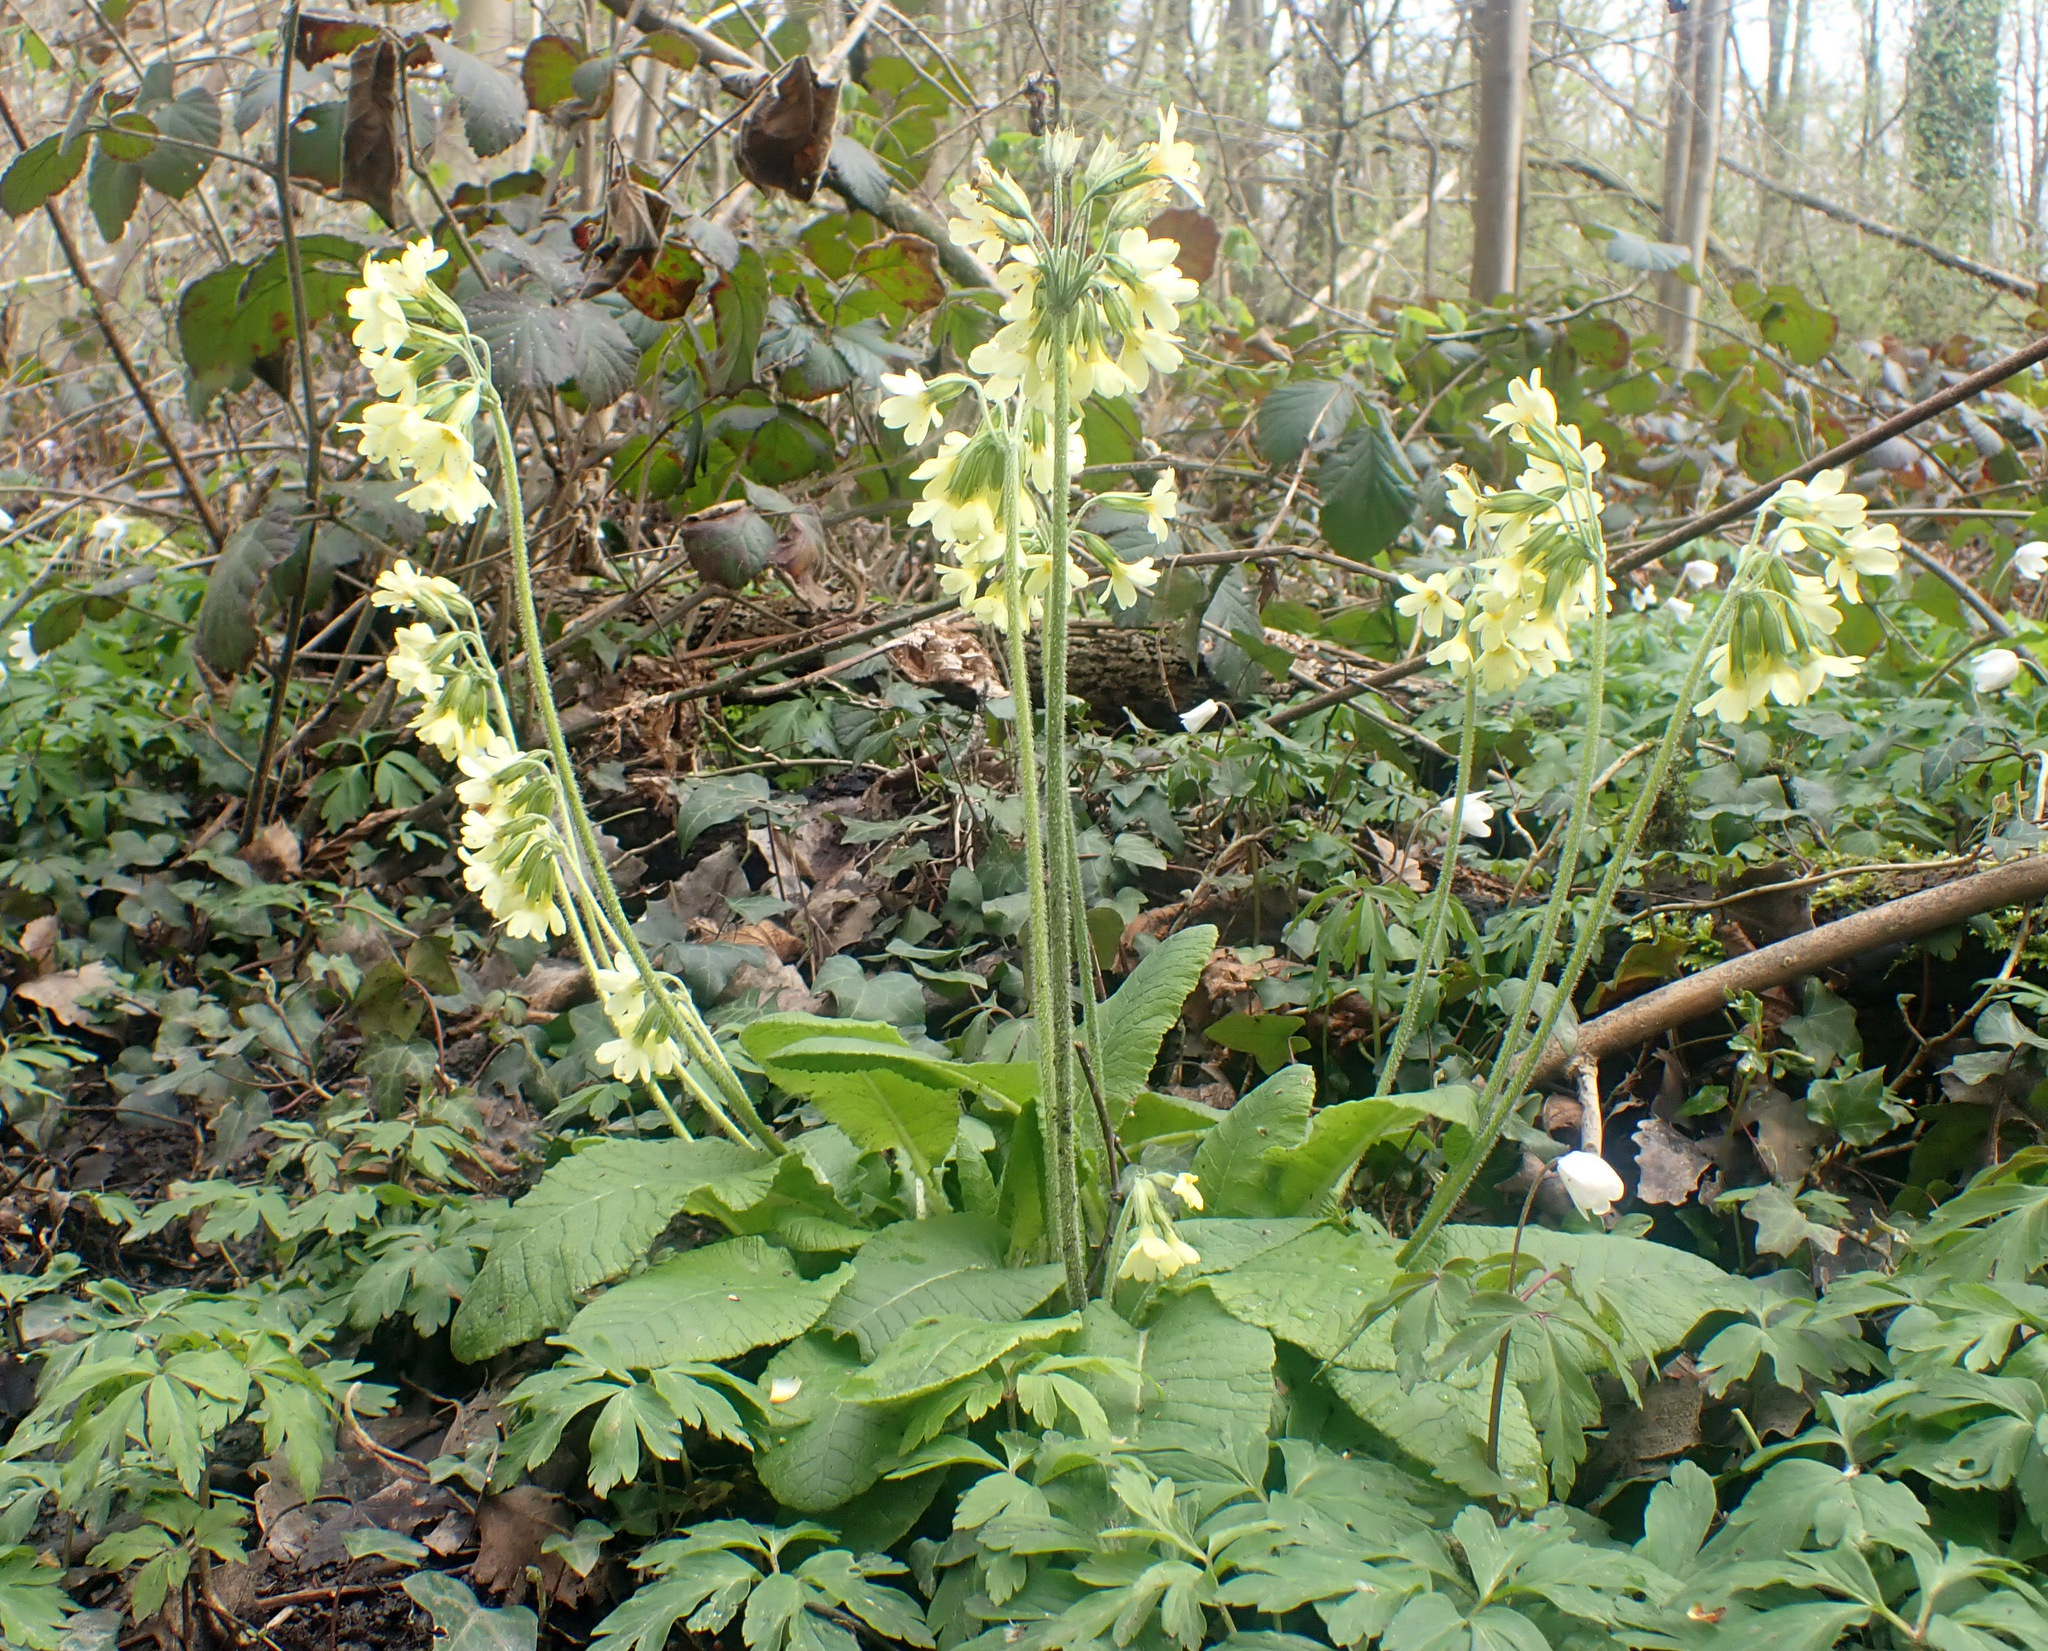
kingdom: Plantae
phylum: Tracheophyta
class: Magnoliopsida
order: Ericales
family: Primulaceae
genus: Primula
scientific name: Primula elatior
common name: Oxlip
